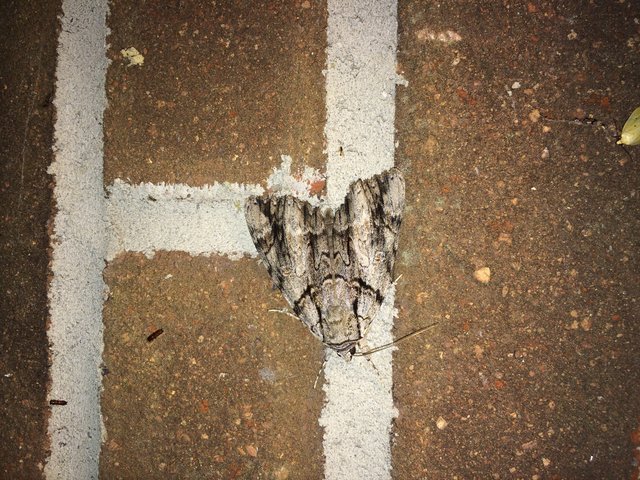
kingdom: Animalia
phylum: Arthropoda
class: Insecta
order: Lepidoptera
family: Erebidae
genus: Catocala
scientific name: Catocala vidua
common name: The widow
